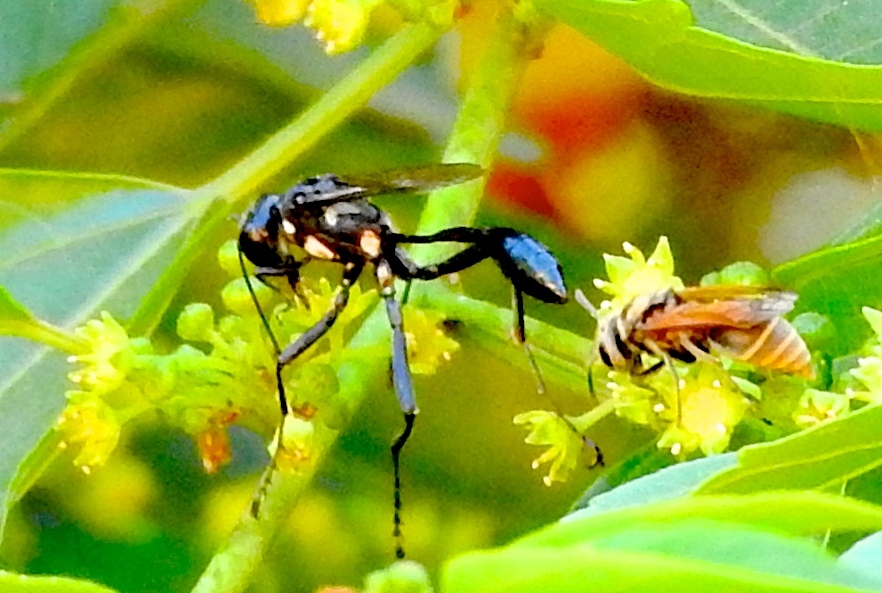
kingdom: Animalia
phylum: Arthropoda
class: Insecta
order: Hymenoptera
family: Sphecidae
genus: Eremnophila
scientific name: Eremnophila
